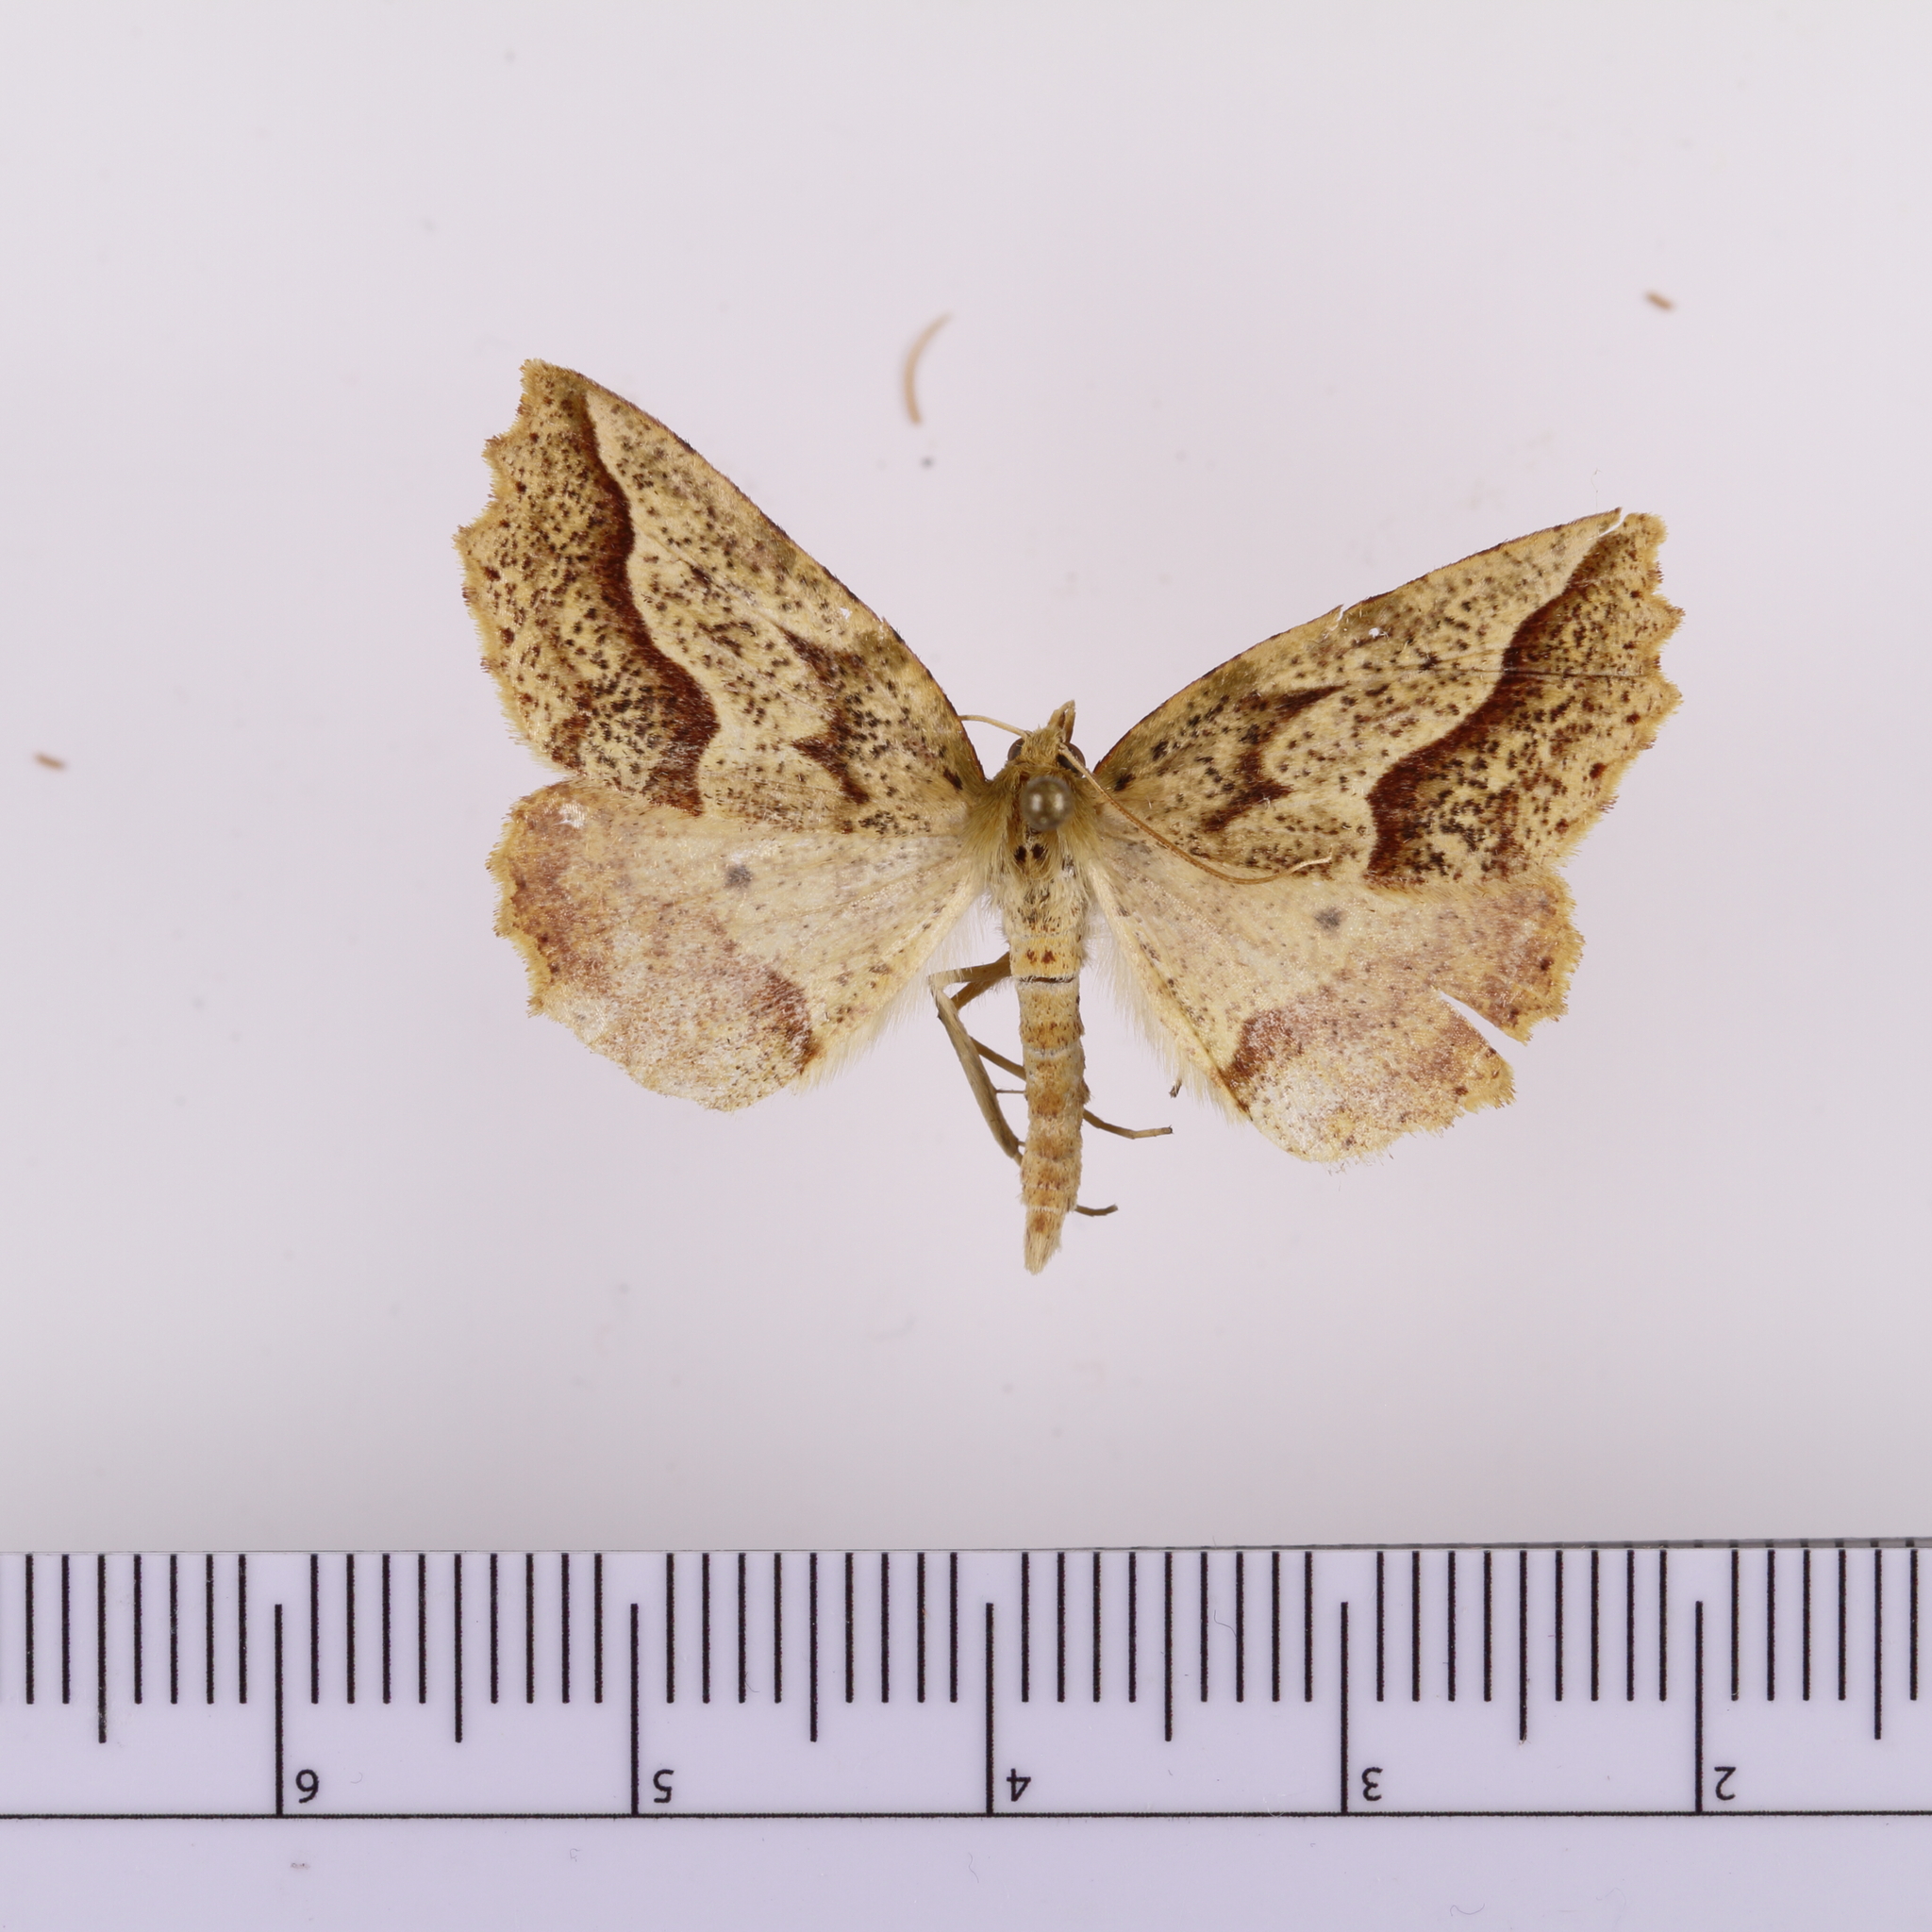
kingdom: Animalia
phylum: Arthropoda
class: Insecta
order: Lepidoptera
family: Geometridae
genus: Ischalis
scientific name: Ischalis variabilis
